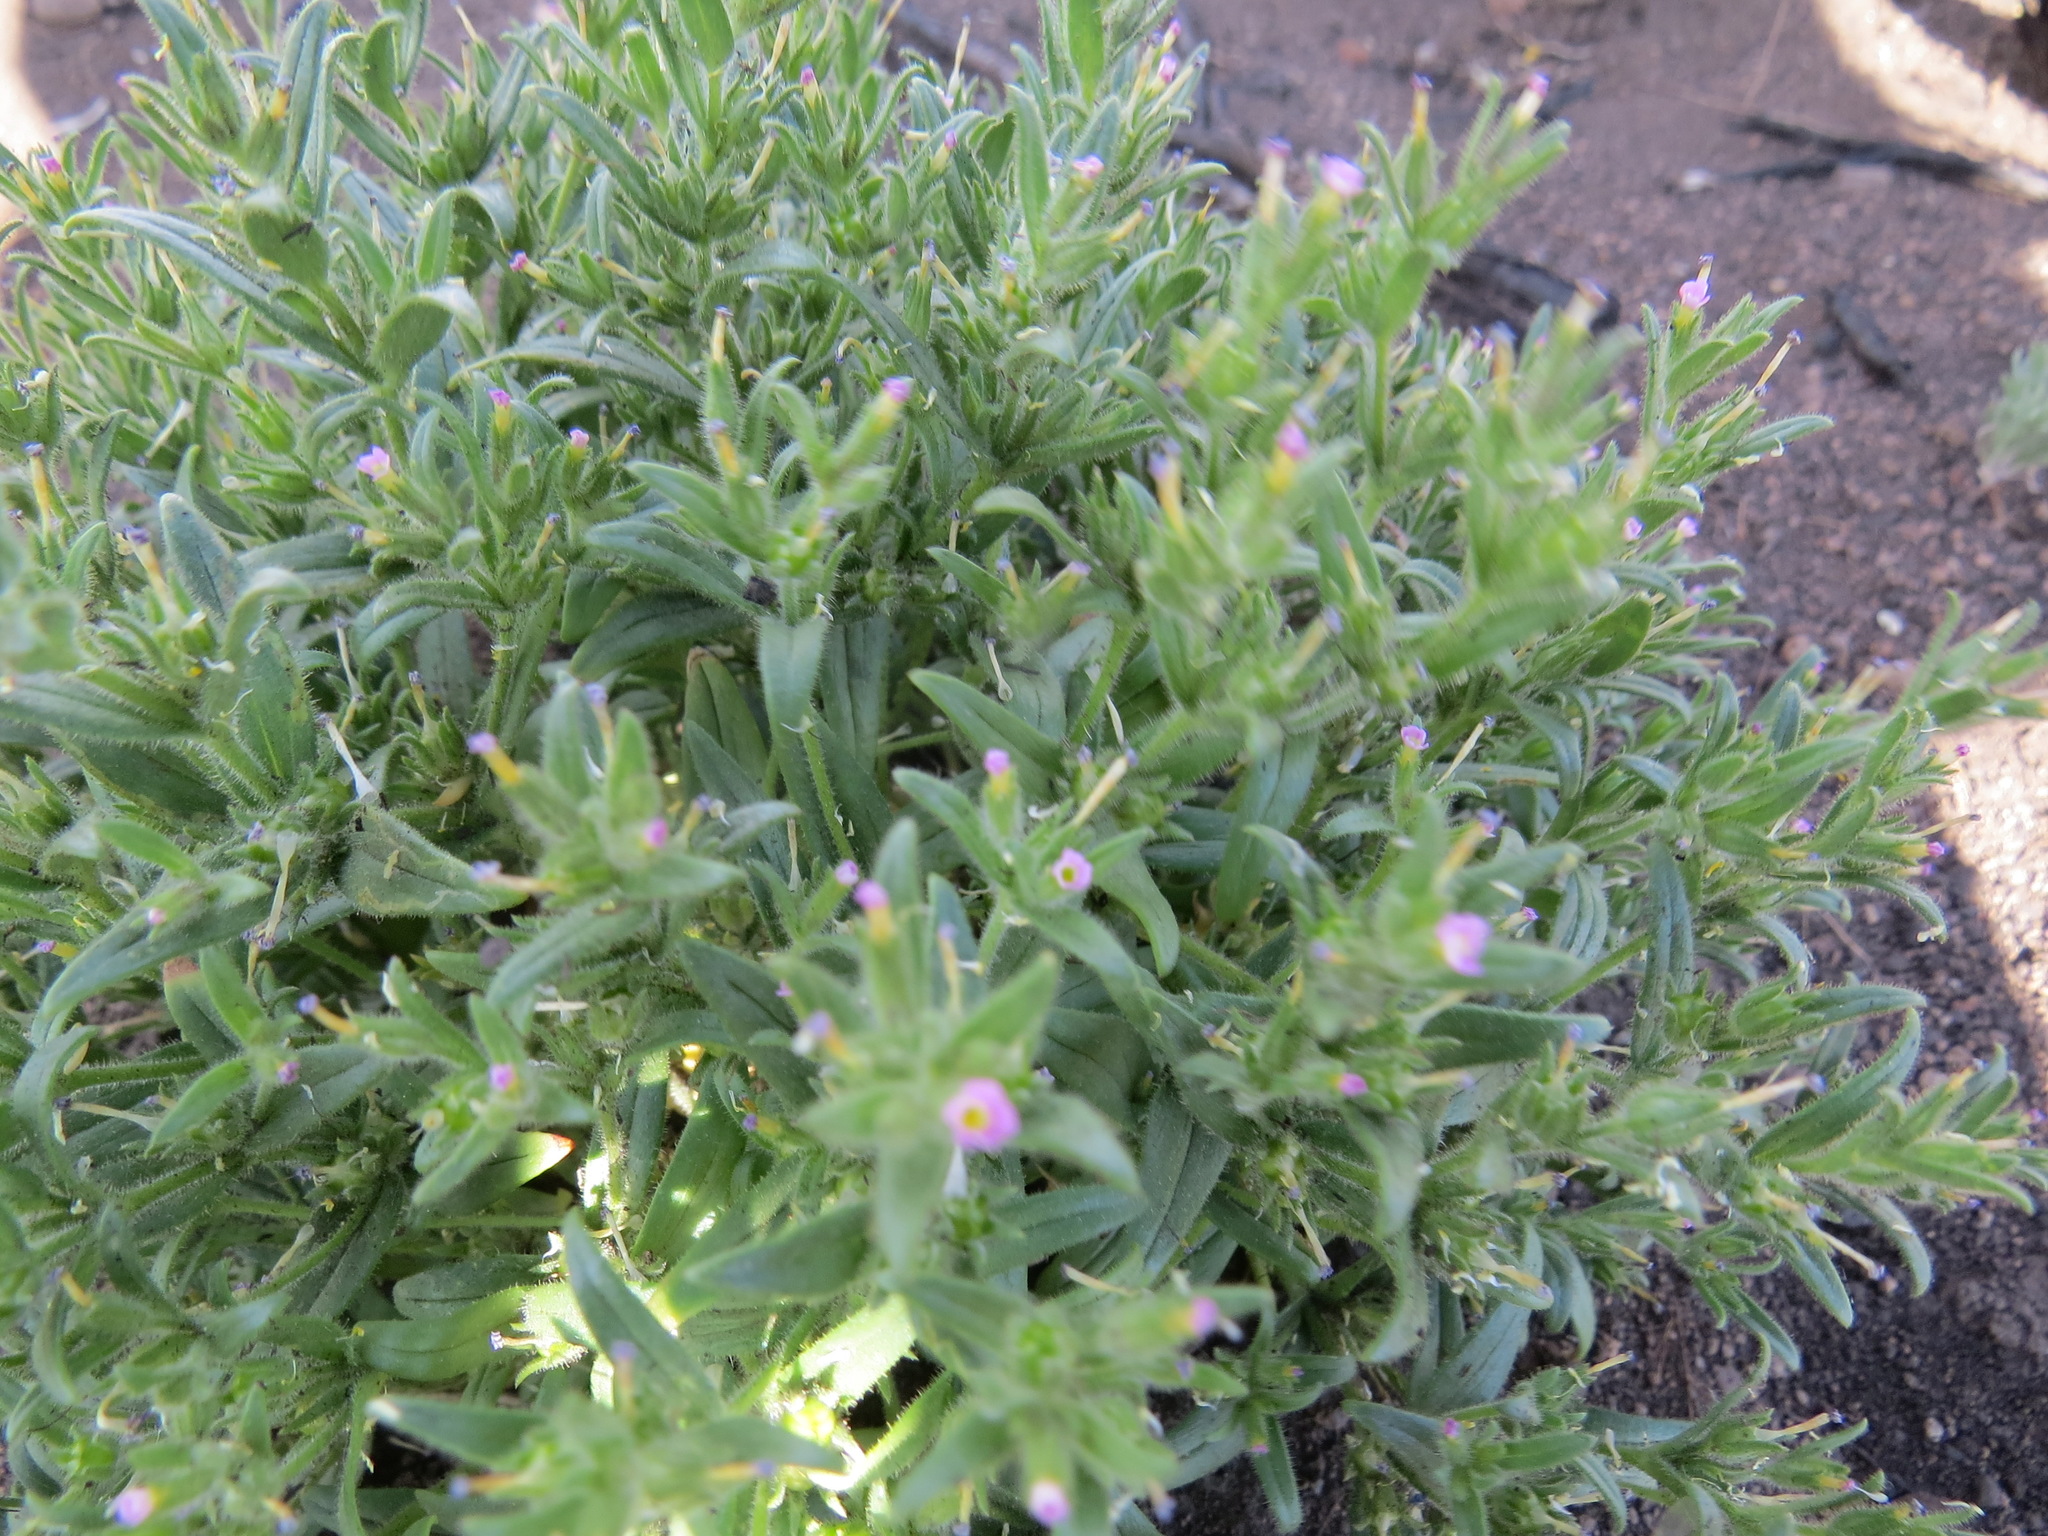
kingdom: Plantae
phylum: Tracheophyta
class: Magnoliopsida
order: Ericales
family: Polemoniaceae
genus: Phlox
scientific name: Phlox gracilis
